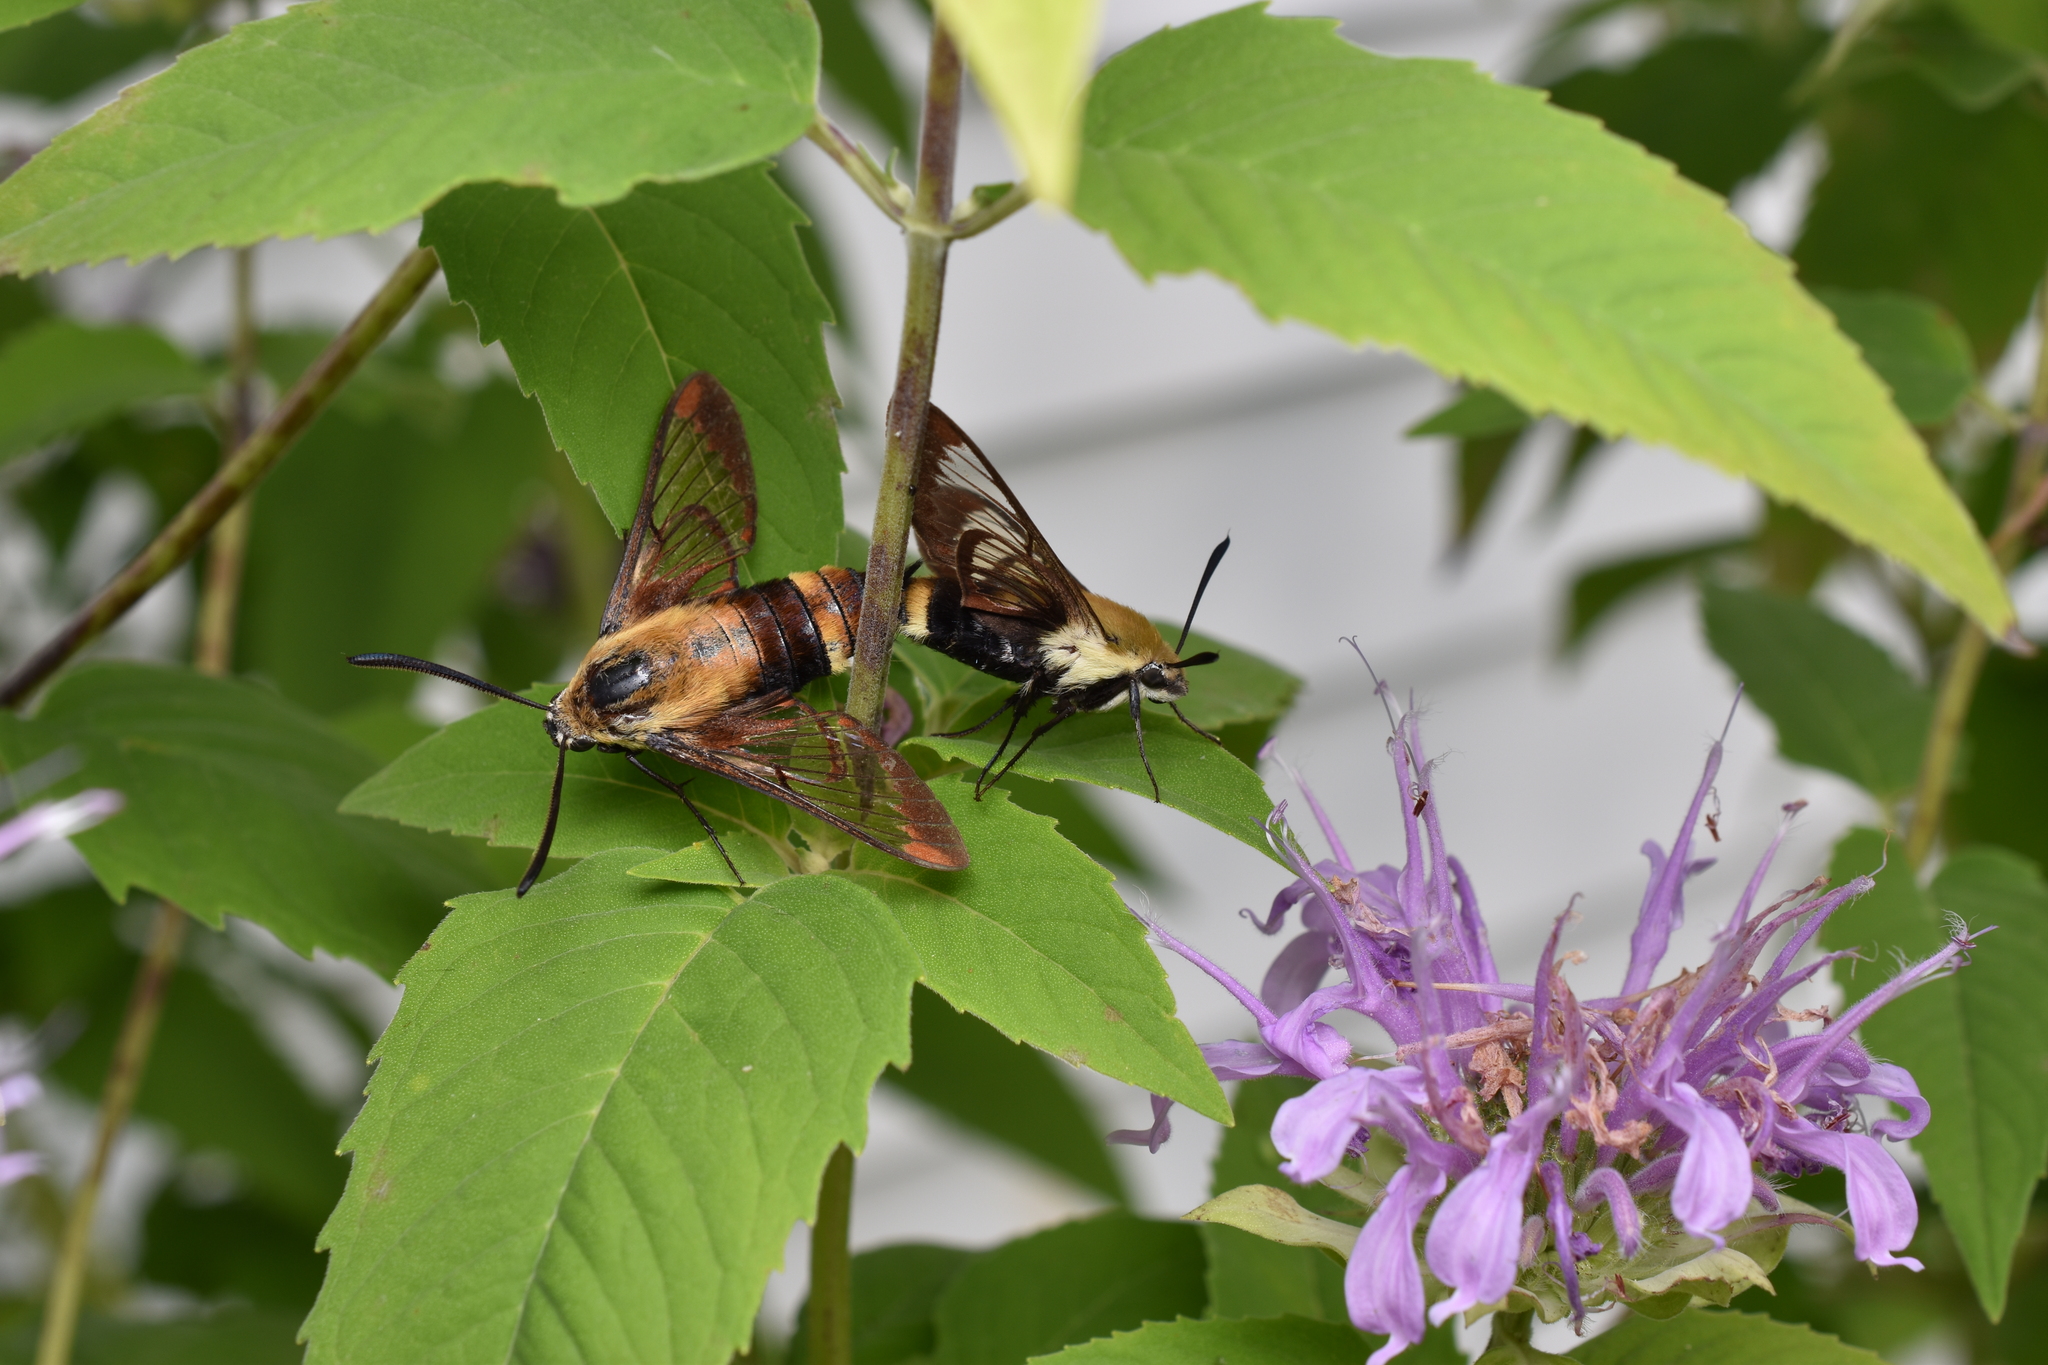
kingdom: Animalia
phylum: Arthropoda
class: Insecta
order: Lepidoptera
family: Sphingidae
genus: Hemaris
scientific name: Hemaris diffinis
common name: Bumblebee moth
